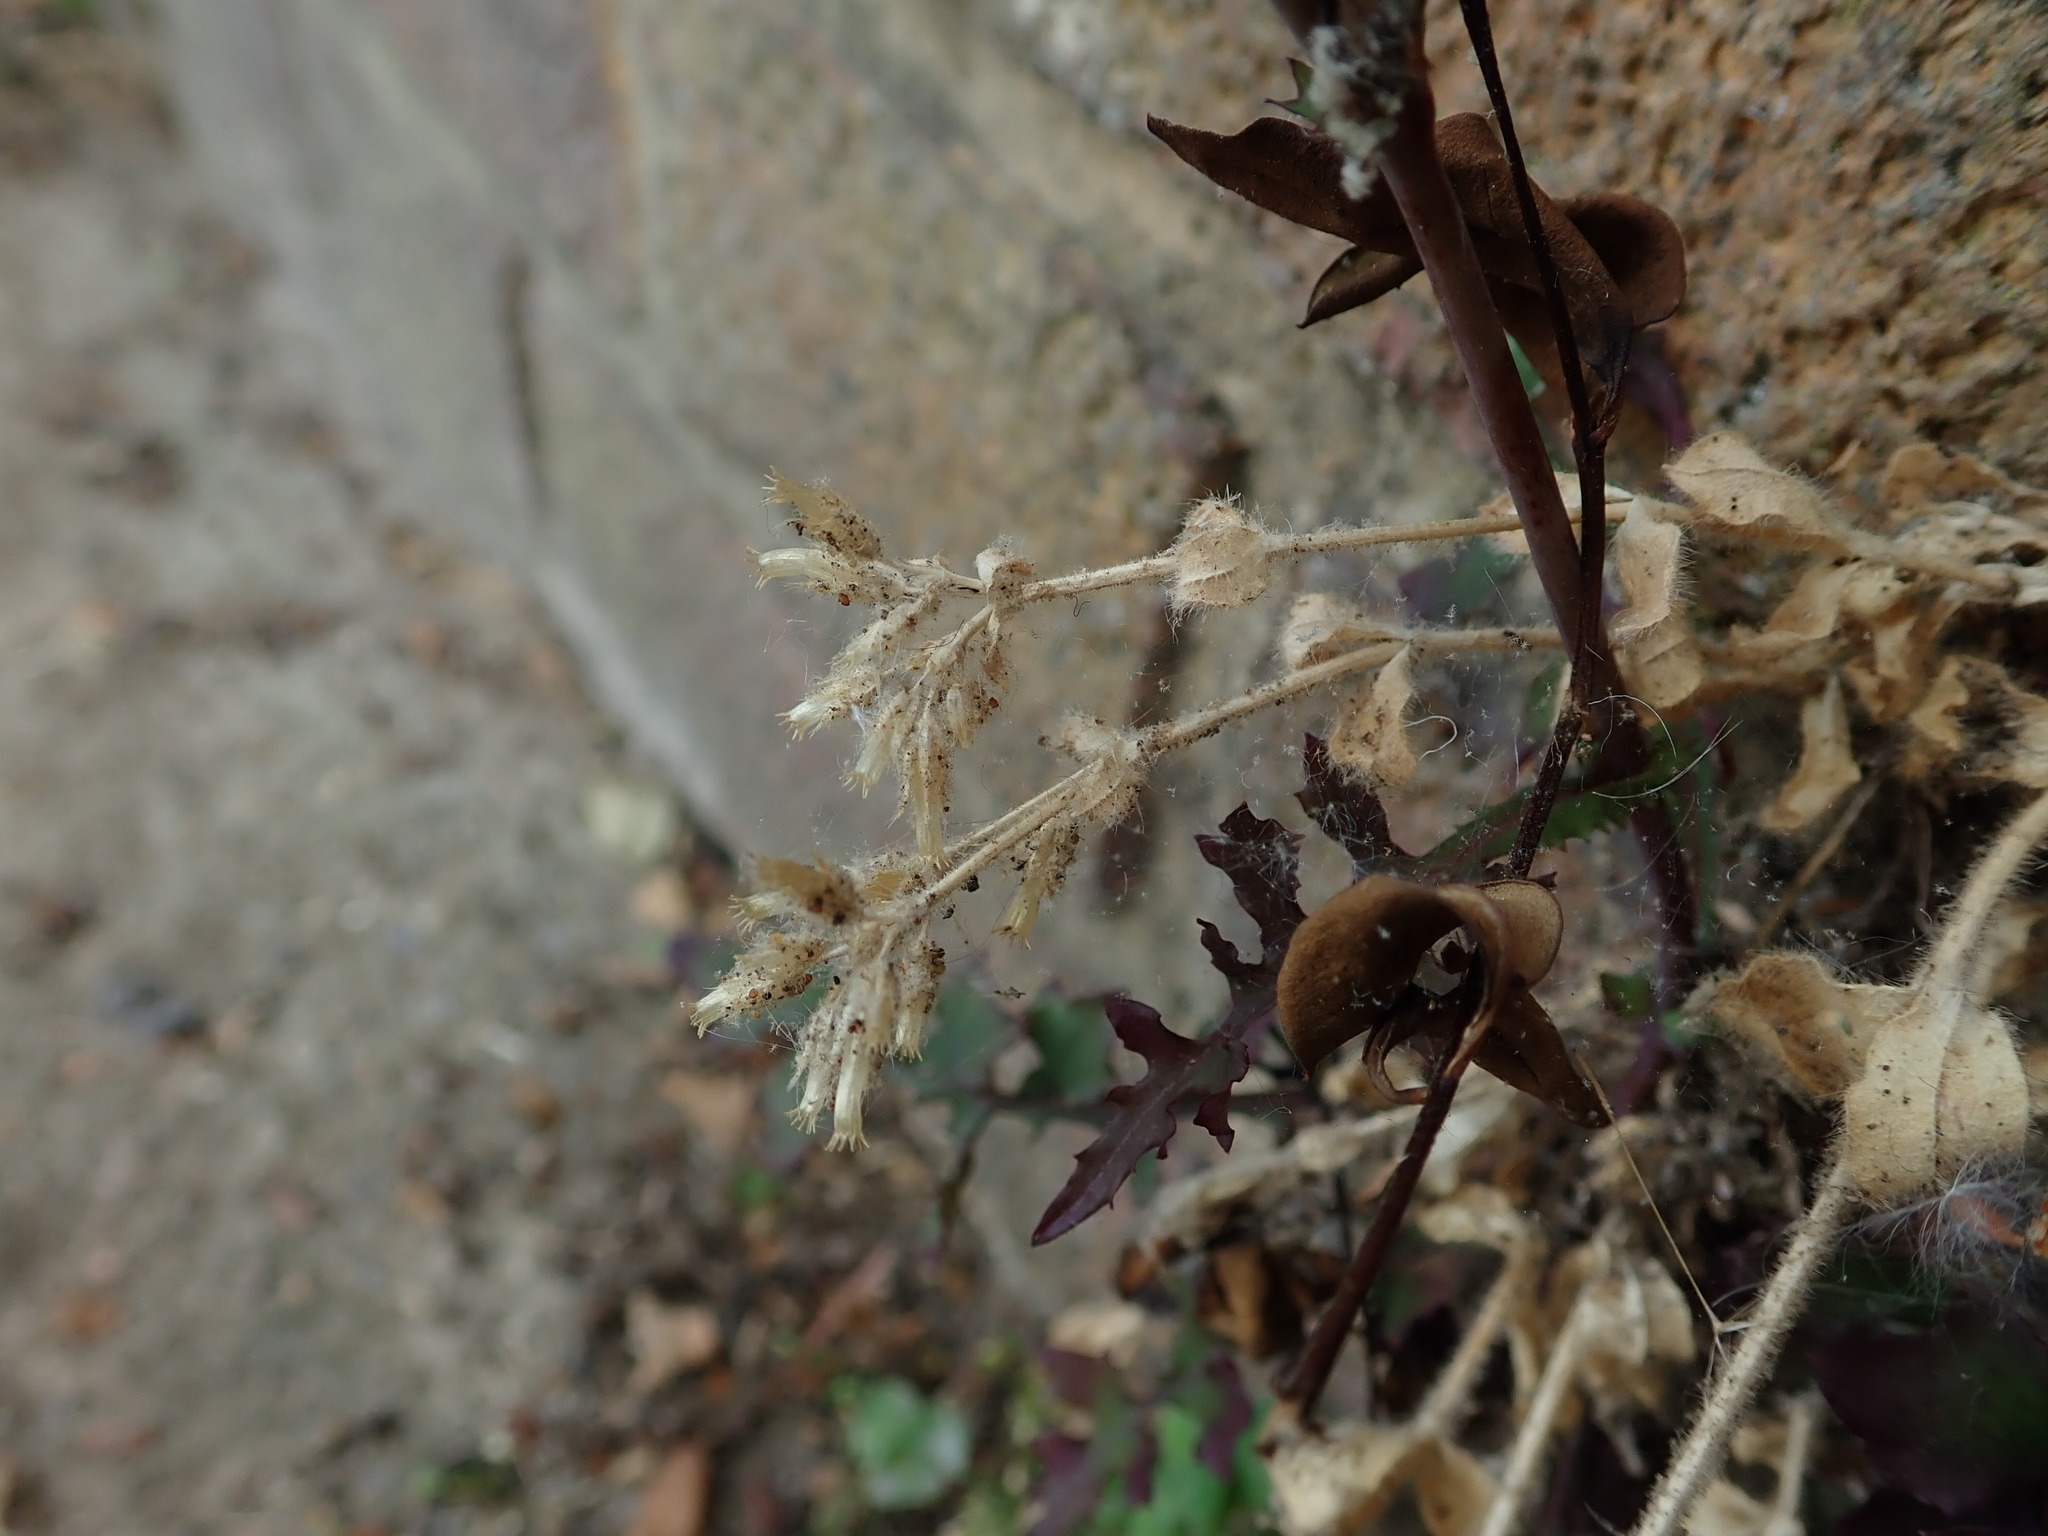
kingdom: Plantae
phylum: Tracheophyta
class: Magnoliopsida
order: Caryophyllales
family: Caryophyllaceae
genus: Cerastium
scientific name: Cerastium glomeratum
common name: Sticky chickweed
